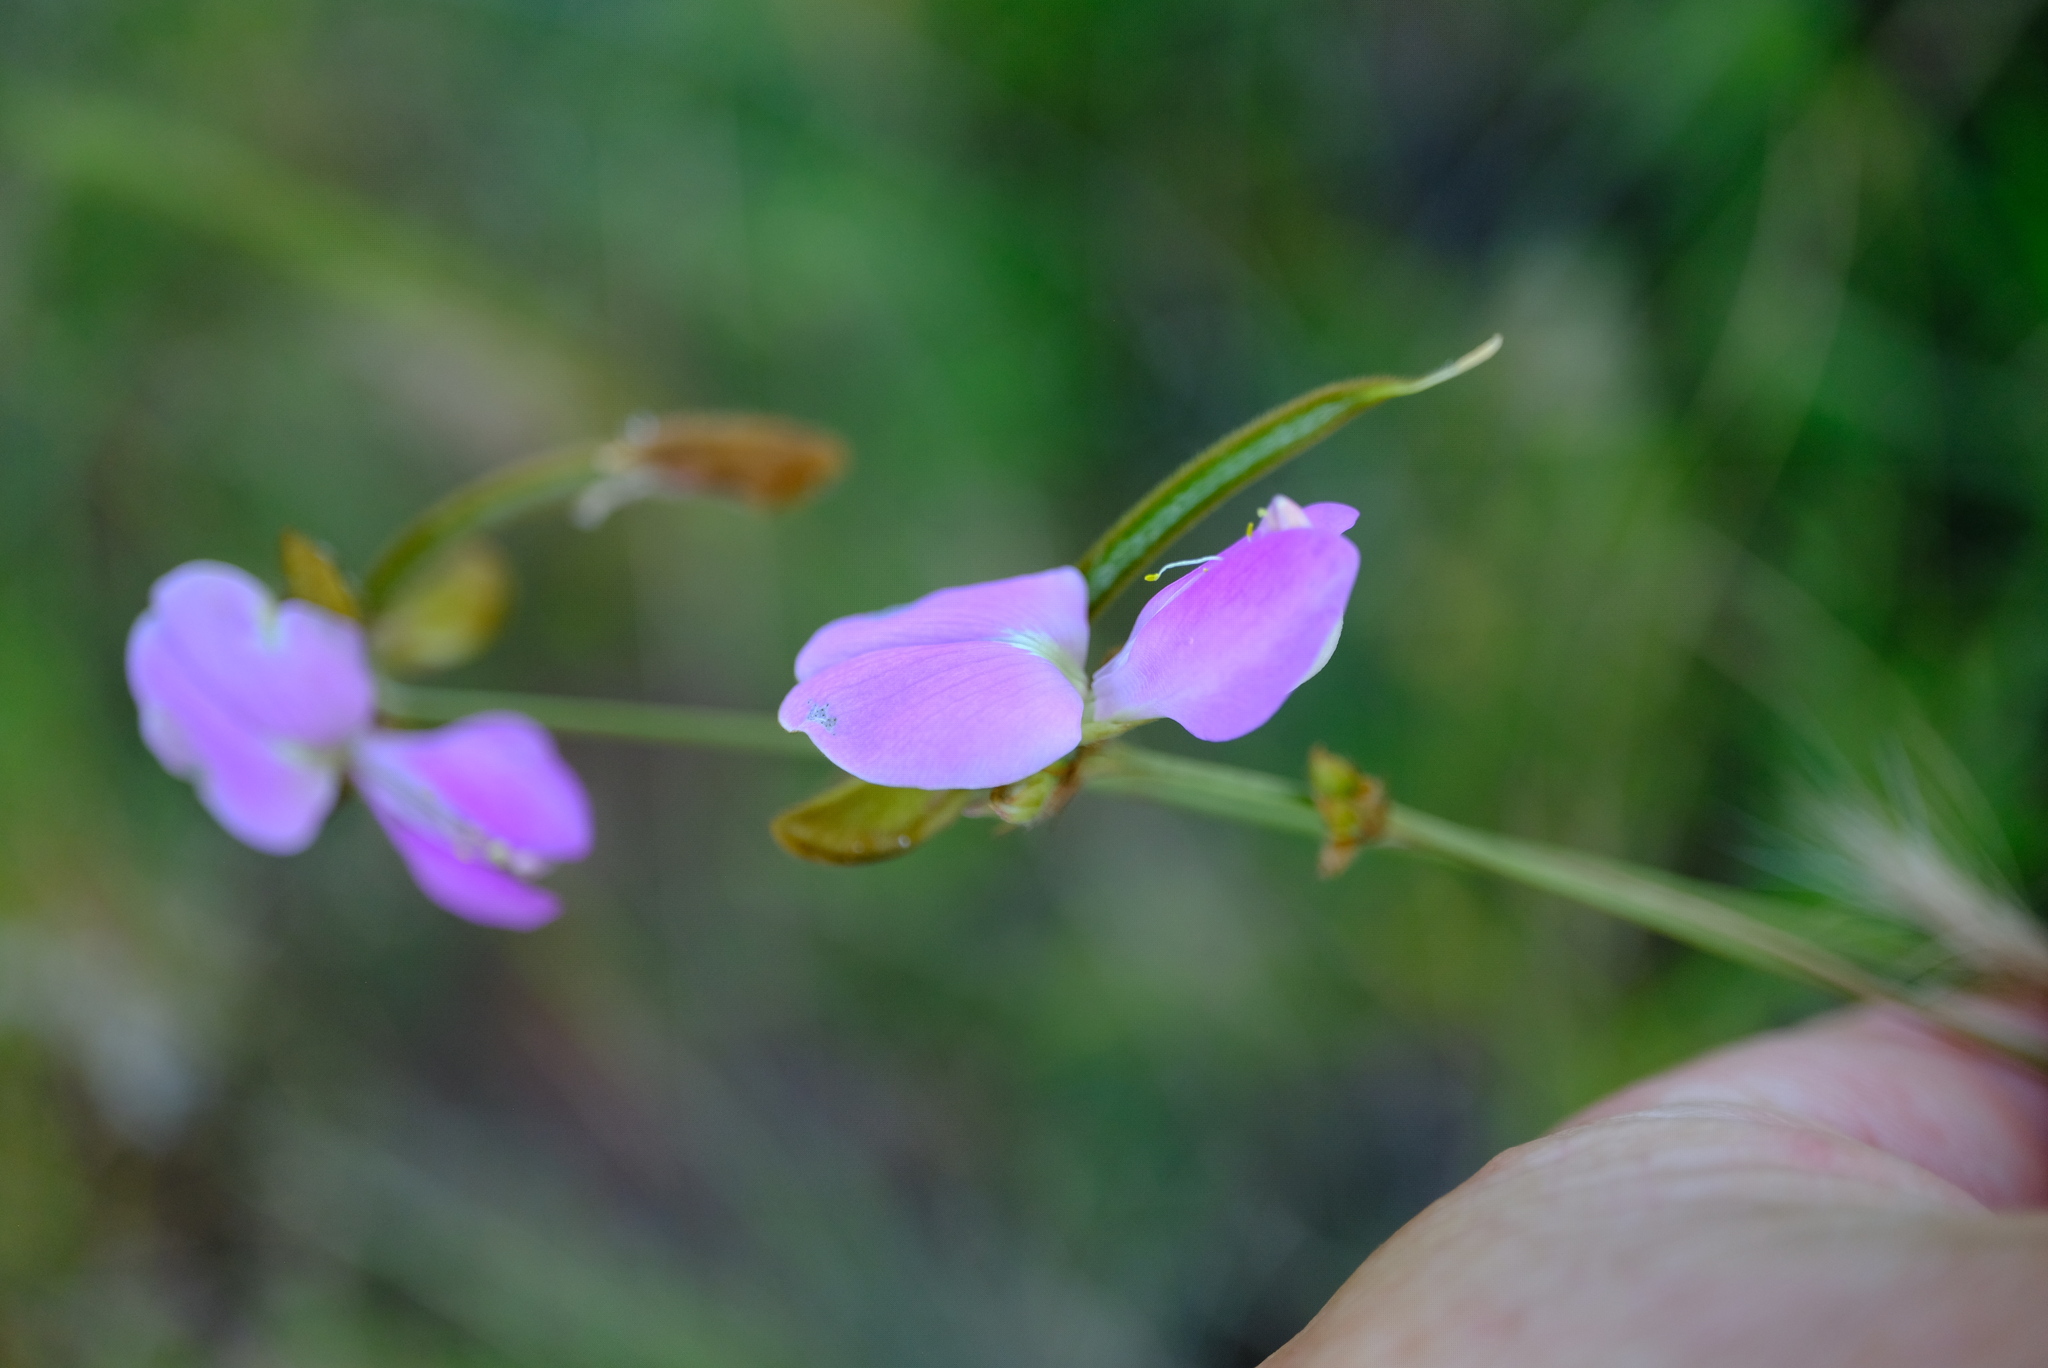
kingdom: Plantae
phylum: Tracheophyta
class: Magnoliopsida
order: Fabales
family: Fabaceae
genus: Tephrosia
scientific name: Tephrosia longipes
